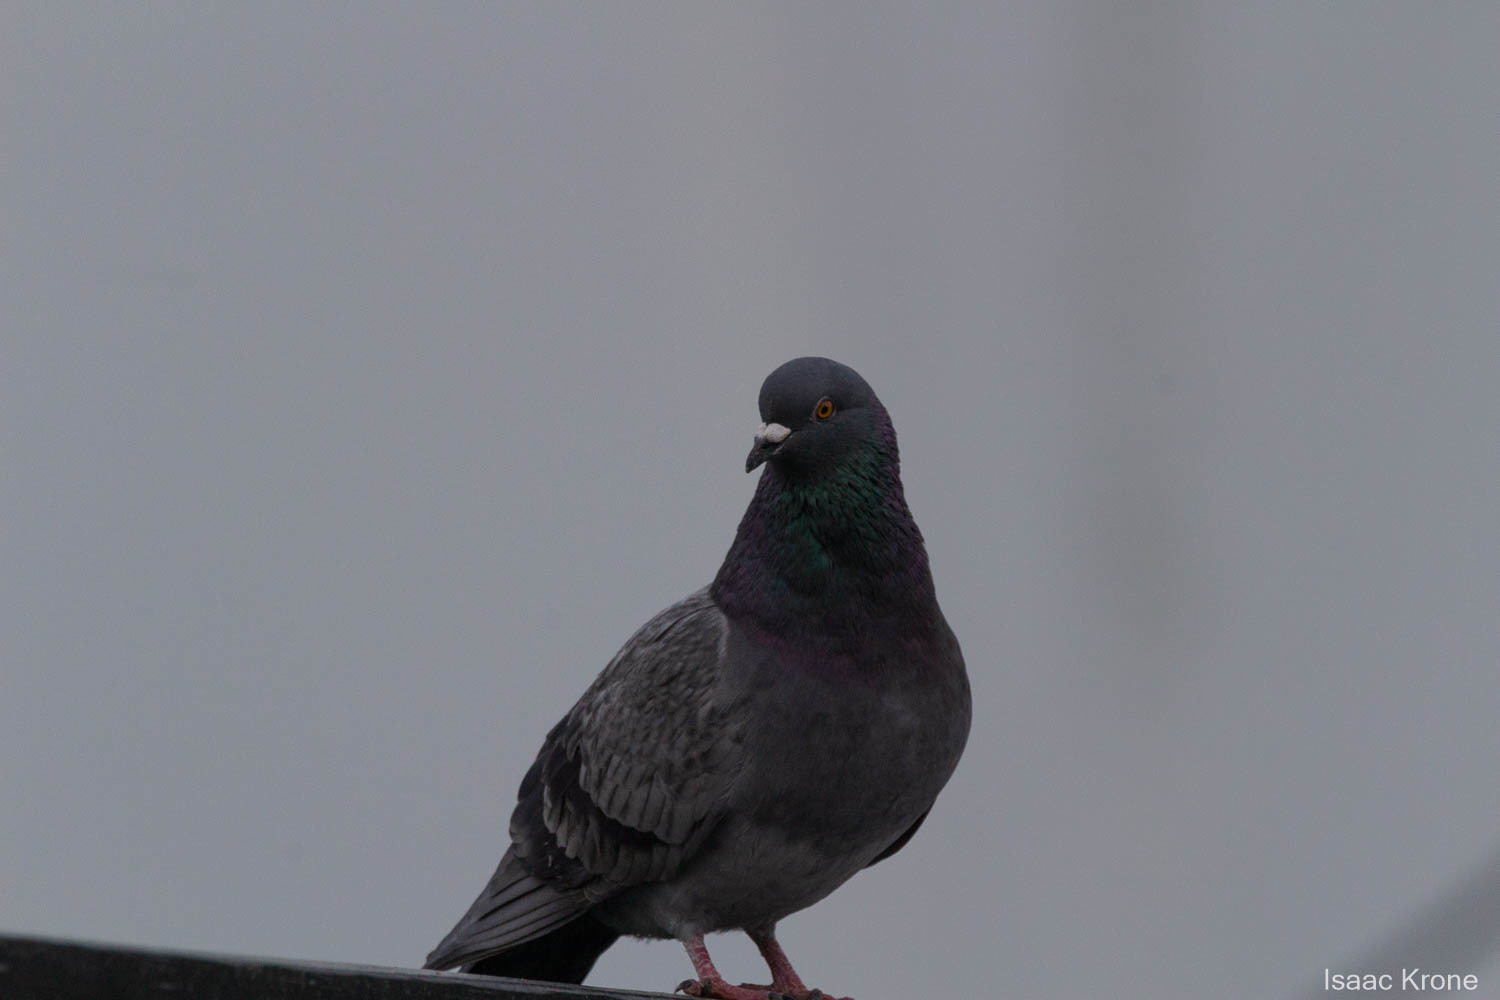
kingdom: Animalia
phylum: Chordata
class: Aves
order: Columbiformes
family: Columbidae
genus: Columba
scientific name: Columba livia
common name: Rock pigeon
